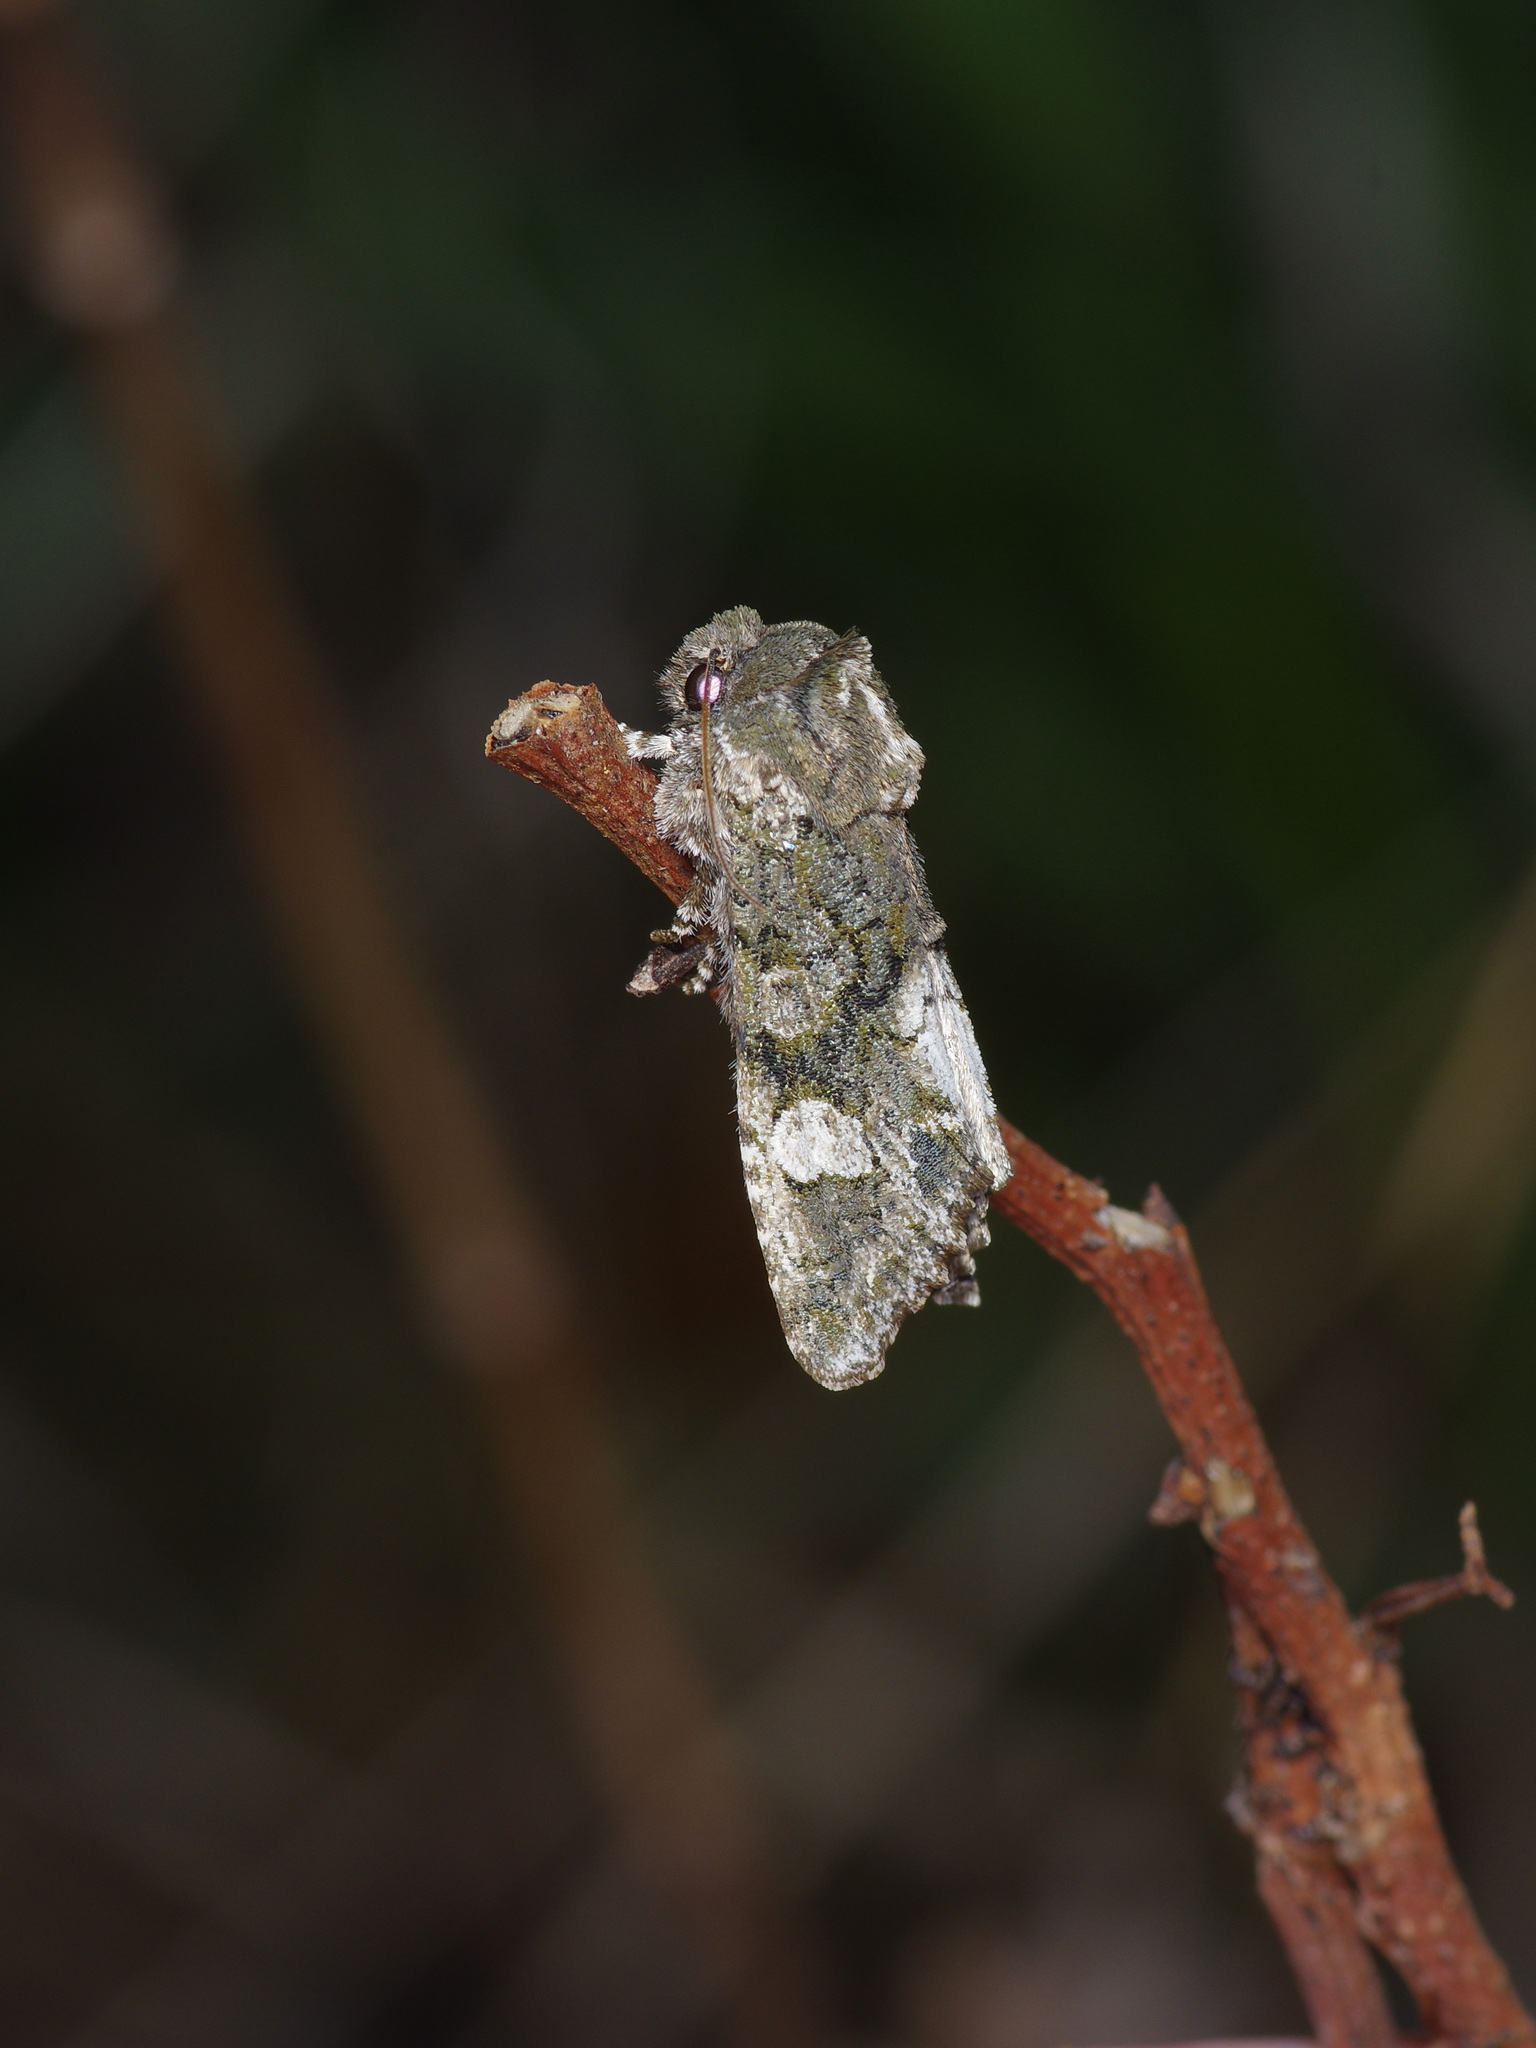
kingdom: Animalia
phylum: Arthropoda
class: Insecta
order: Lepidoptera
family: Noctuidae
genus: Psaphida
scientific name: Psaphida grotei
